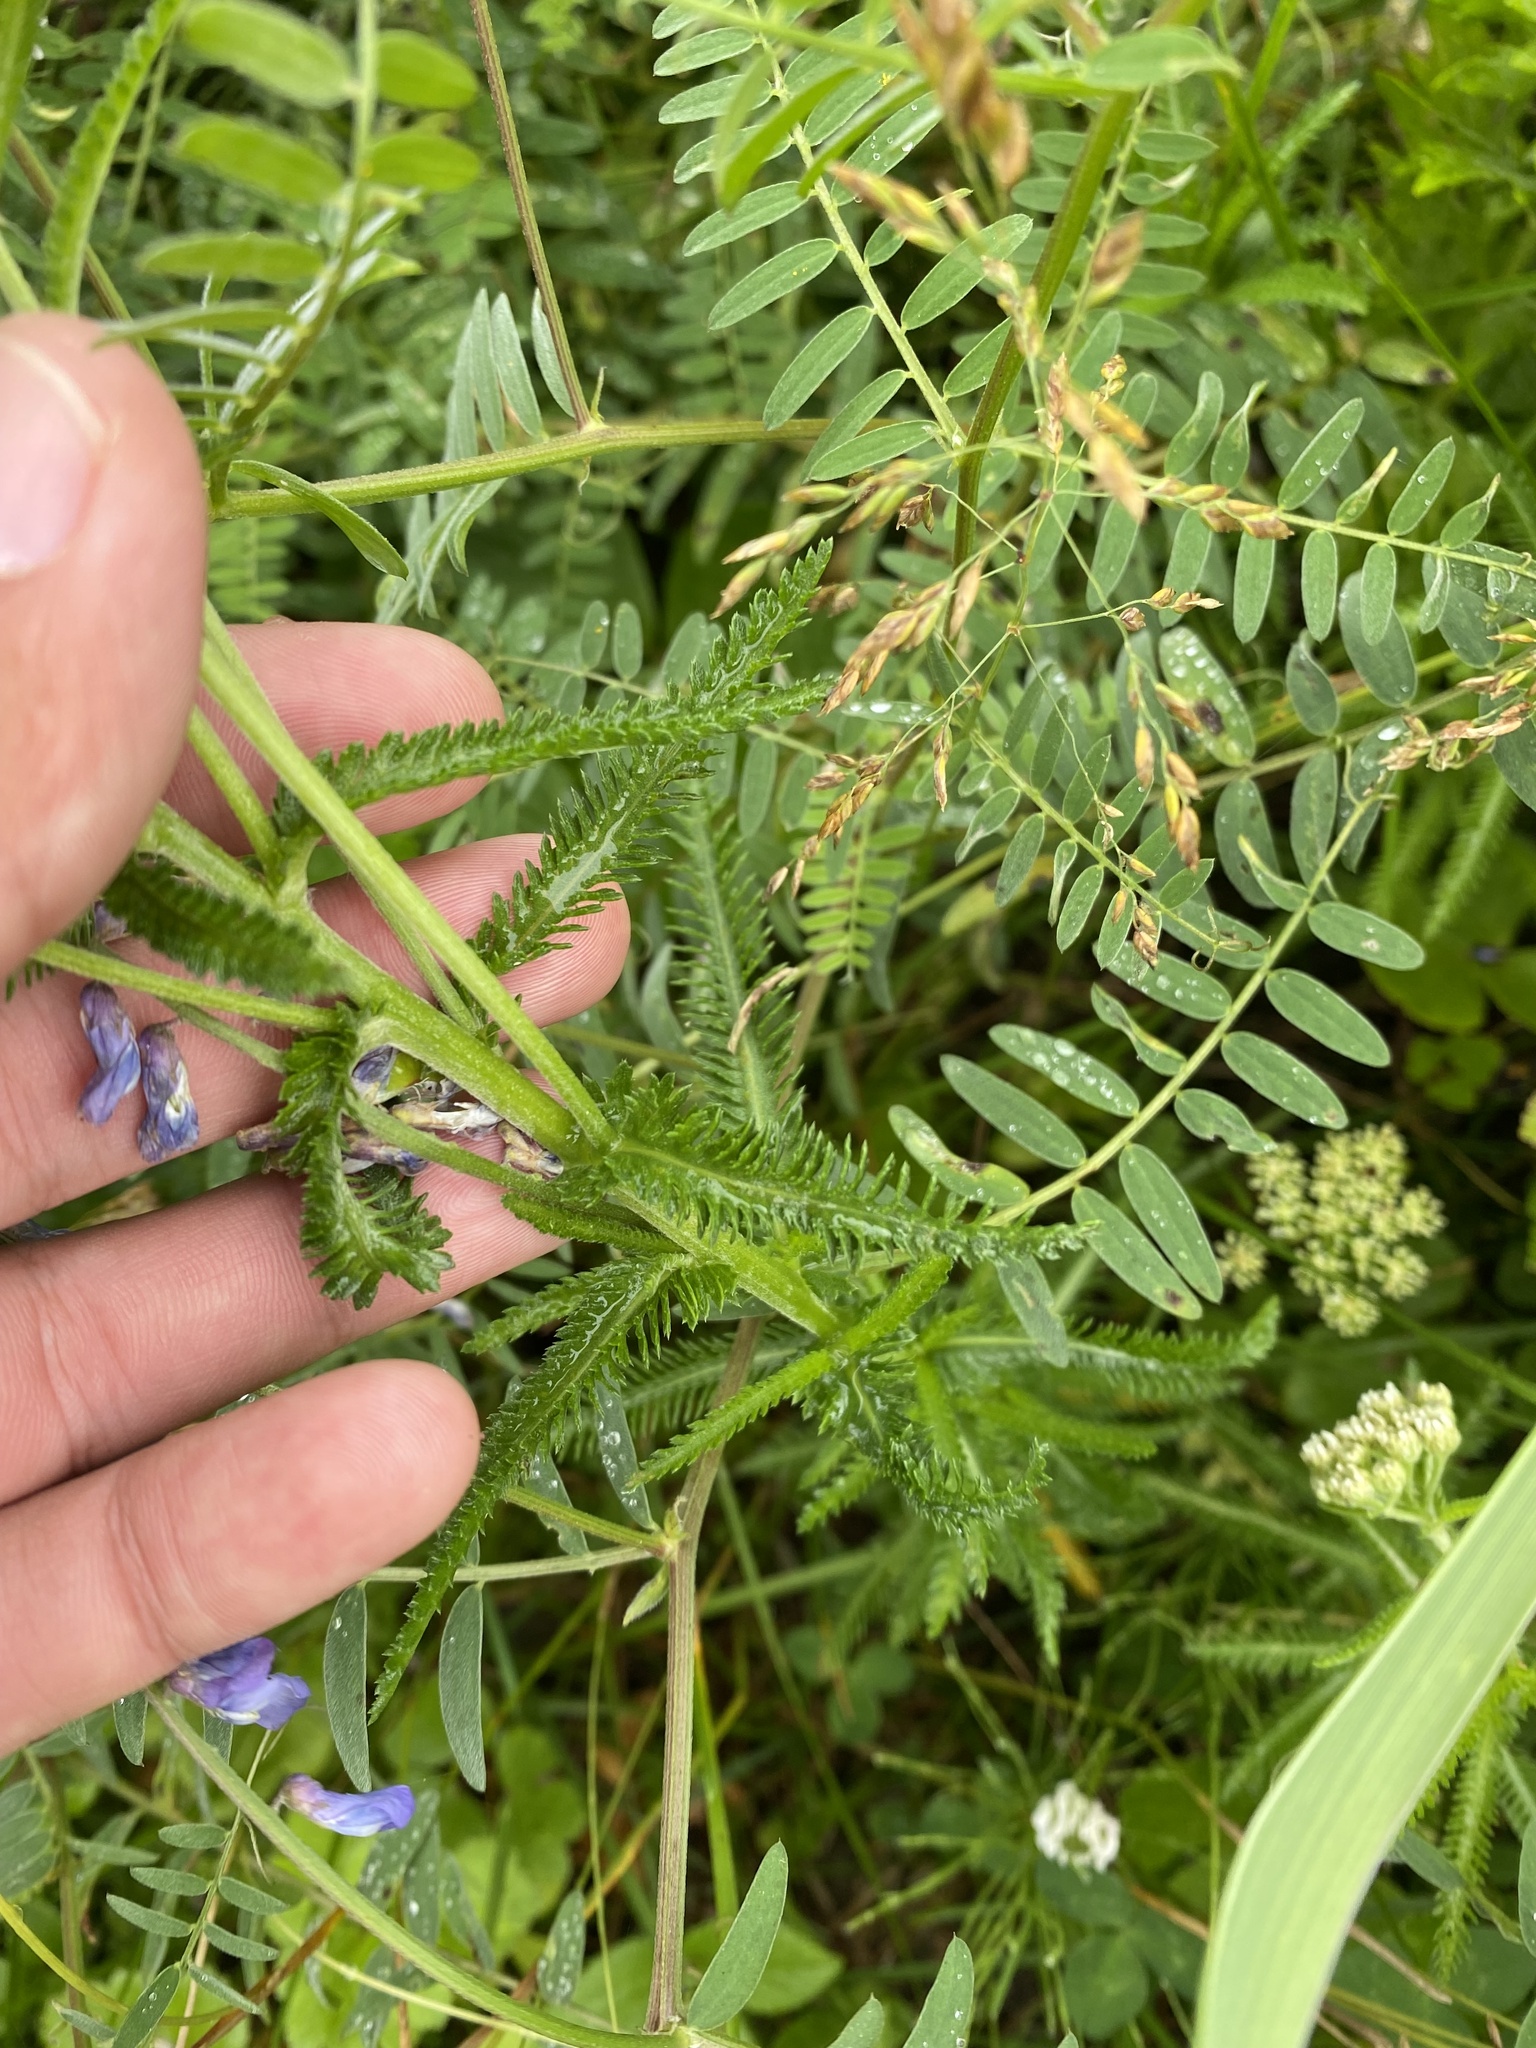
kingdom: Plantae
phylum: Tracheophyta
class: Magnoliopsida
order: Asterales
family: Asteraceae
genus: Achillea
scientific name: Achillea alpina
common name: Siberian yarrow
